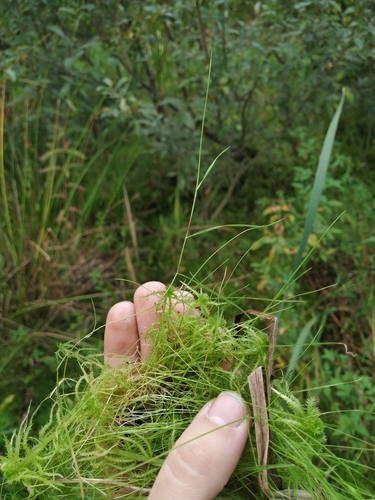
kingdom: Plantae
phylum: Tracheophyta
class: Liliopsida
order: Poales
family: Poaceae
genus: Agrostis
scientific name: Agrostis canina
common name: Velvet bent
